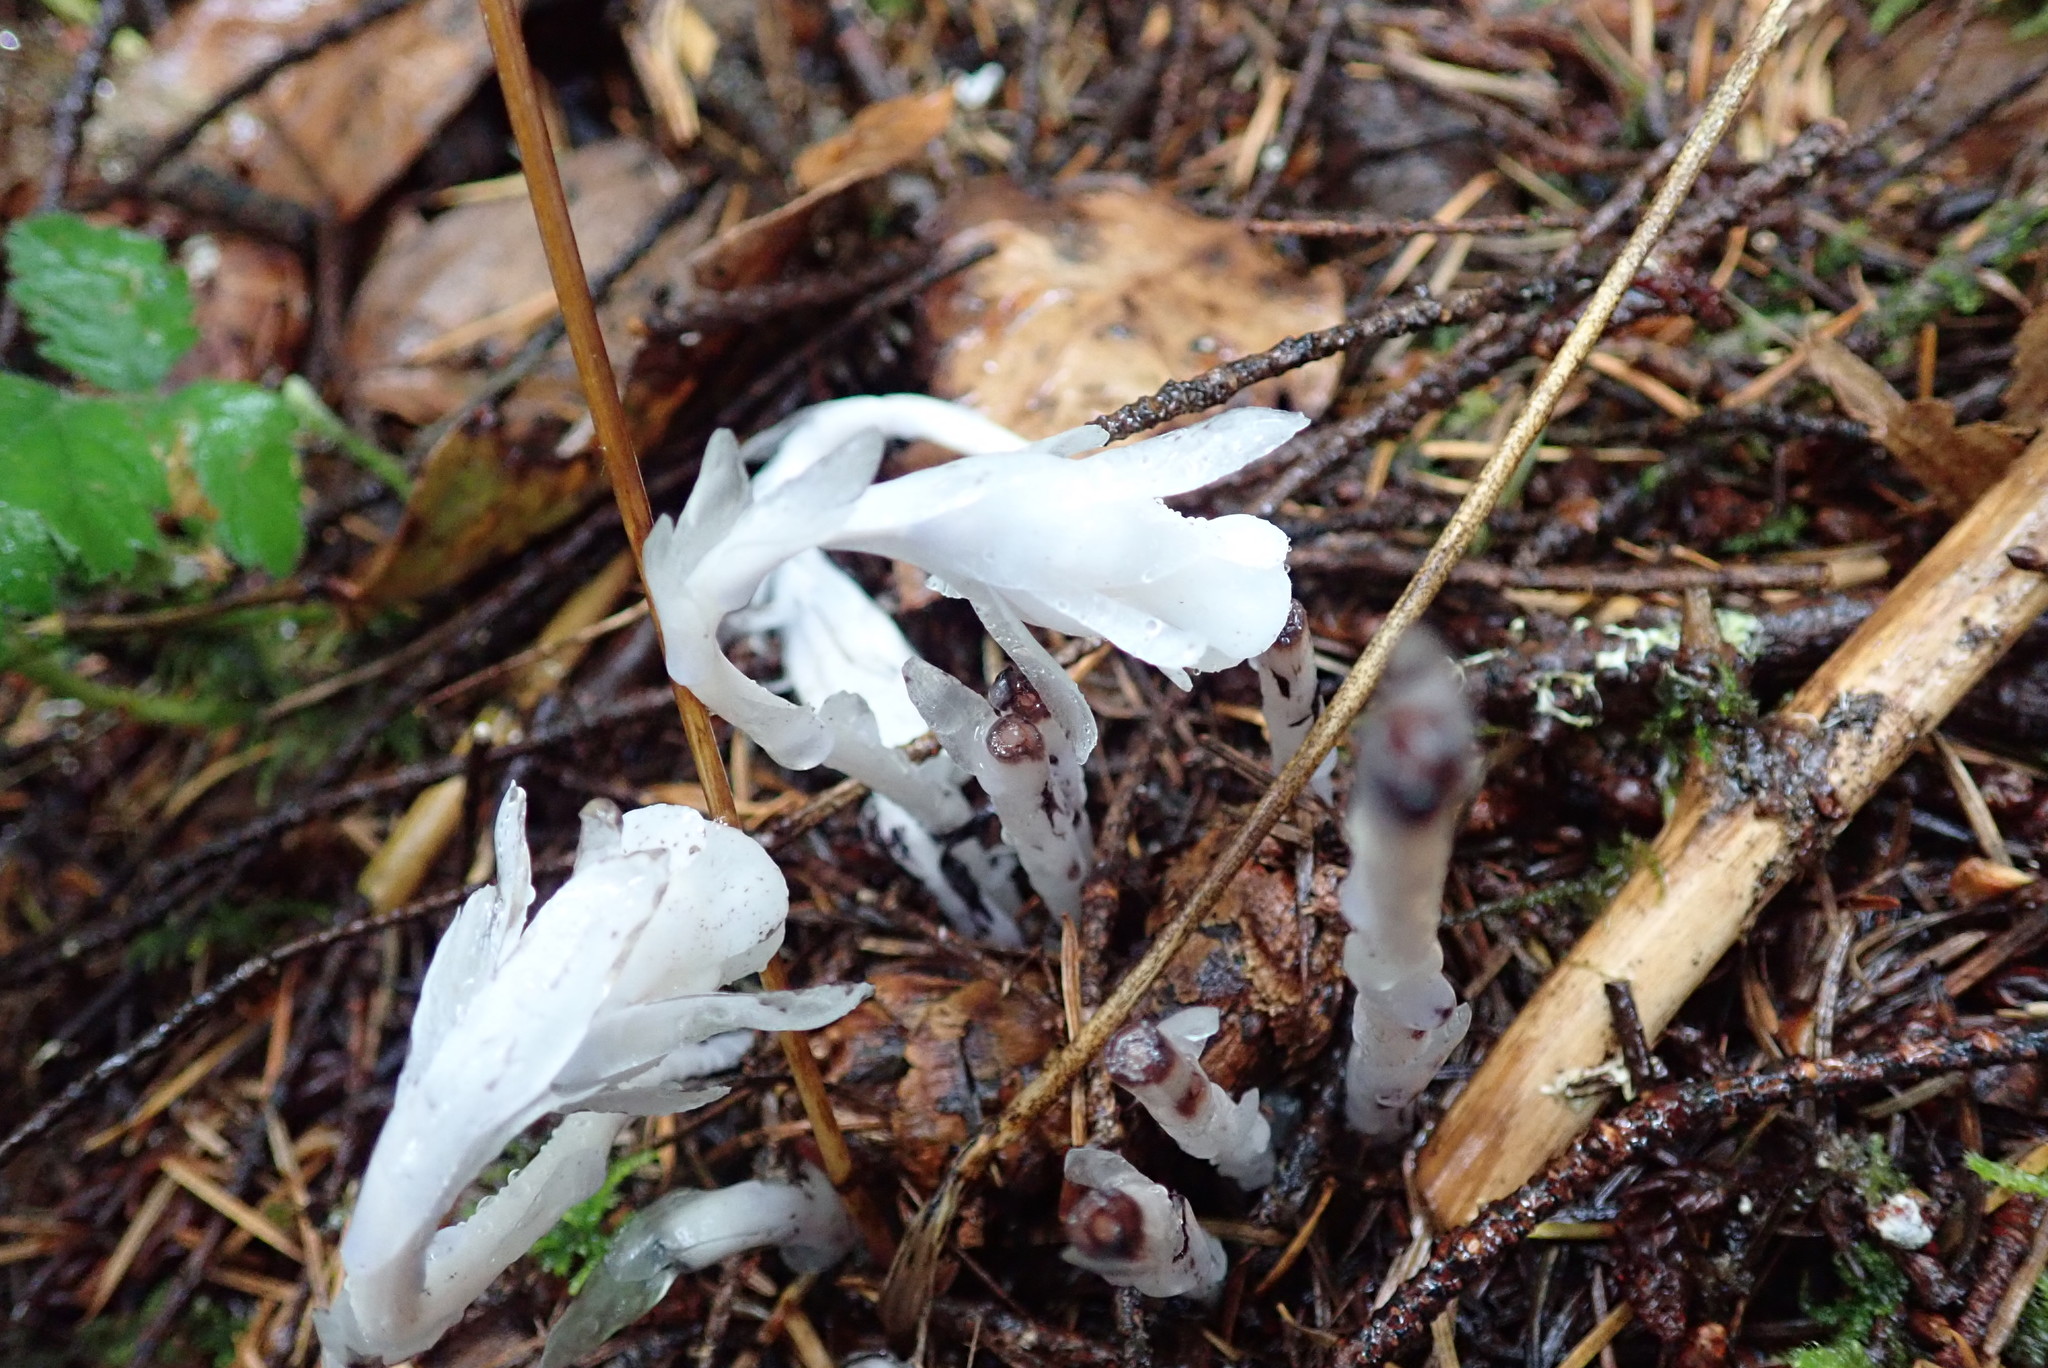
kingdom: Plantae
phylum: Tracheophyta
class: Magnoliopsida
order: Ericales
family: Ericaceae
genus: Monotropa
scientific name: Monotropa uniflora
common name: Convulsion root
